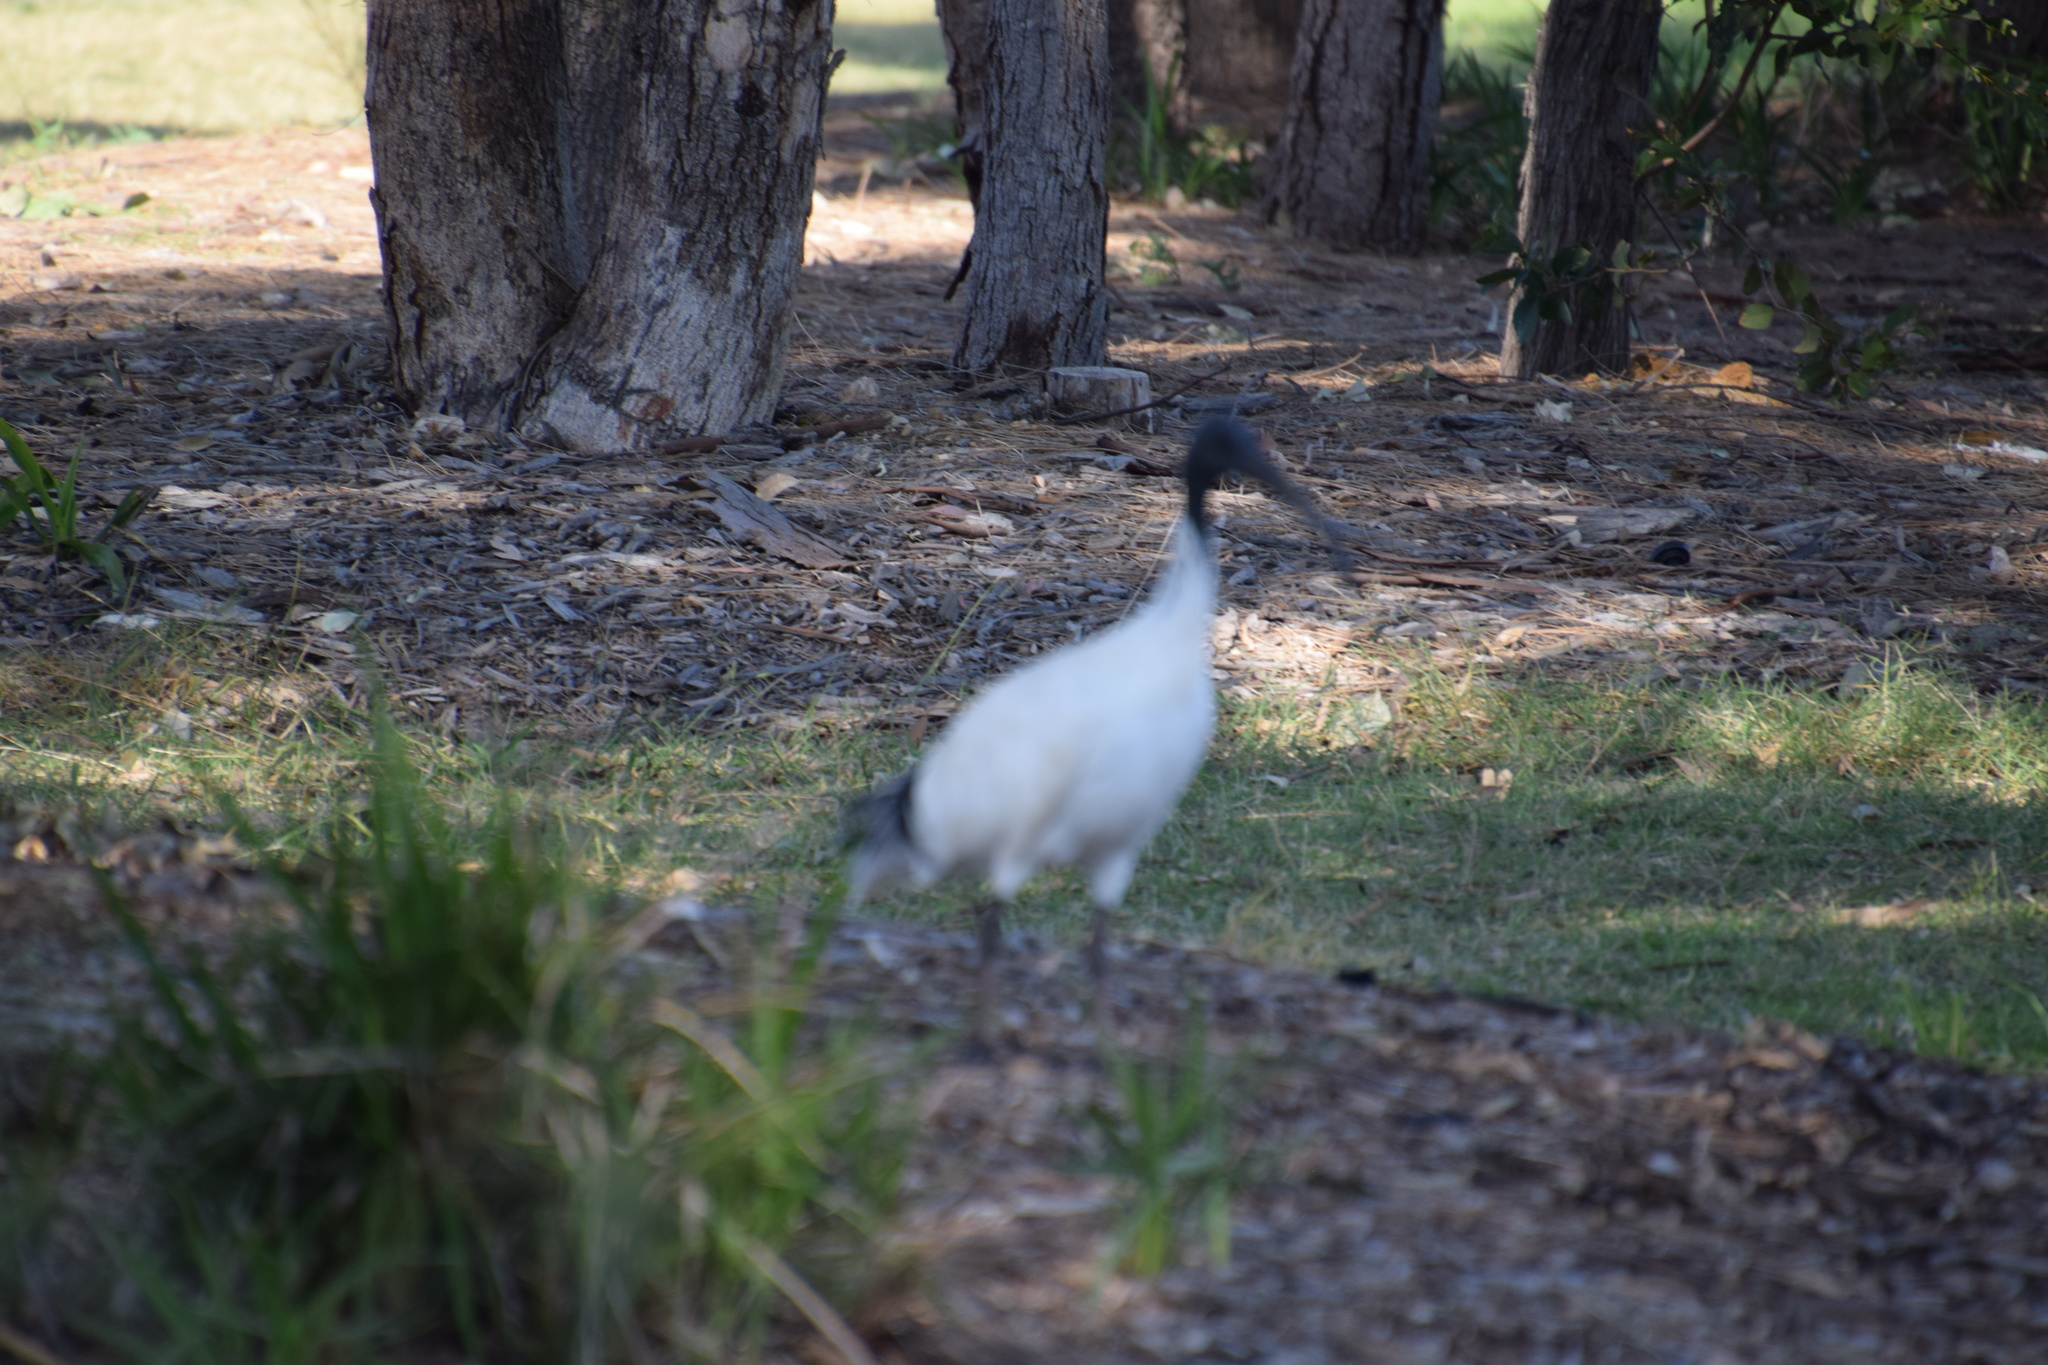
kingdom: Animalia
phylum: Chordata
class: Aves
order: Pelecaniformes
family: Threskiornithidae
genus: Threskiornis
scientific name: Threskiornis molucca
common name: Australian white ibis
